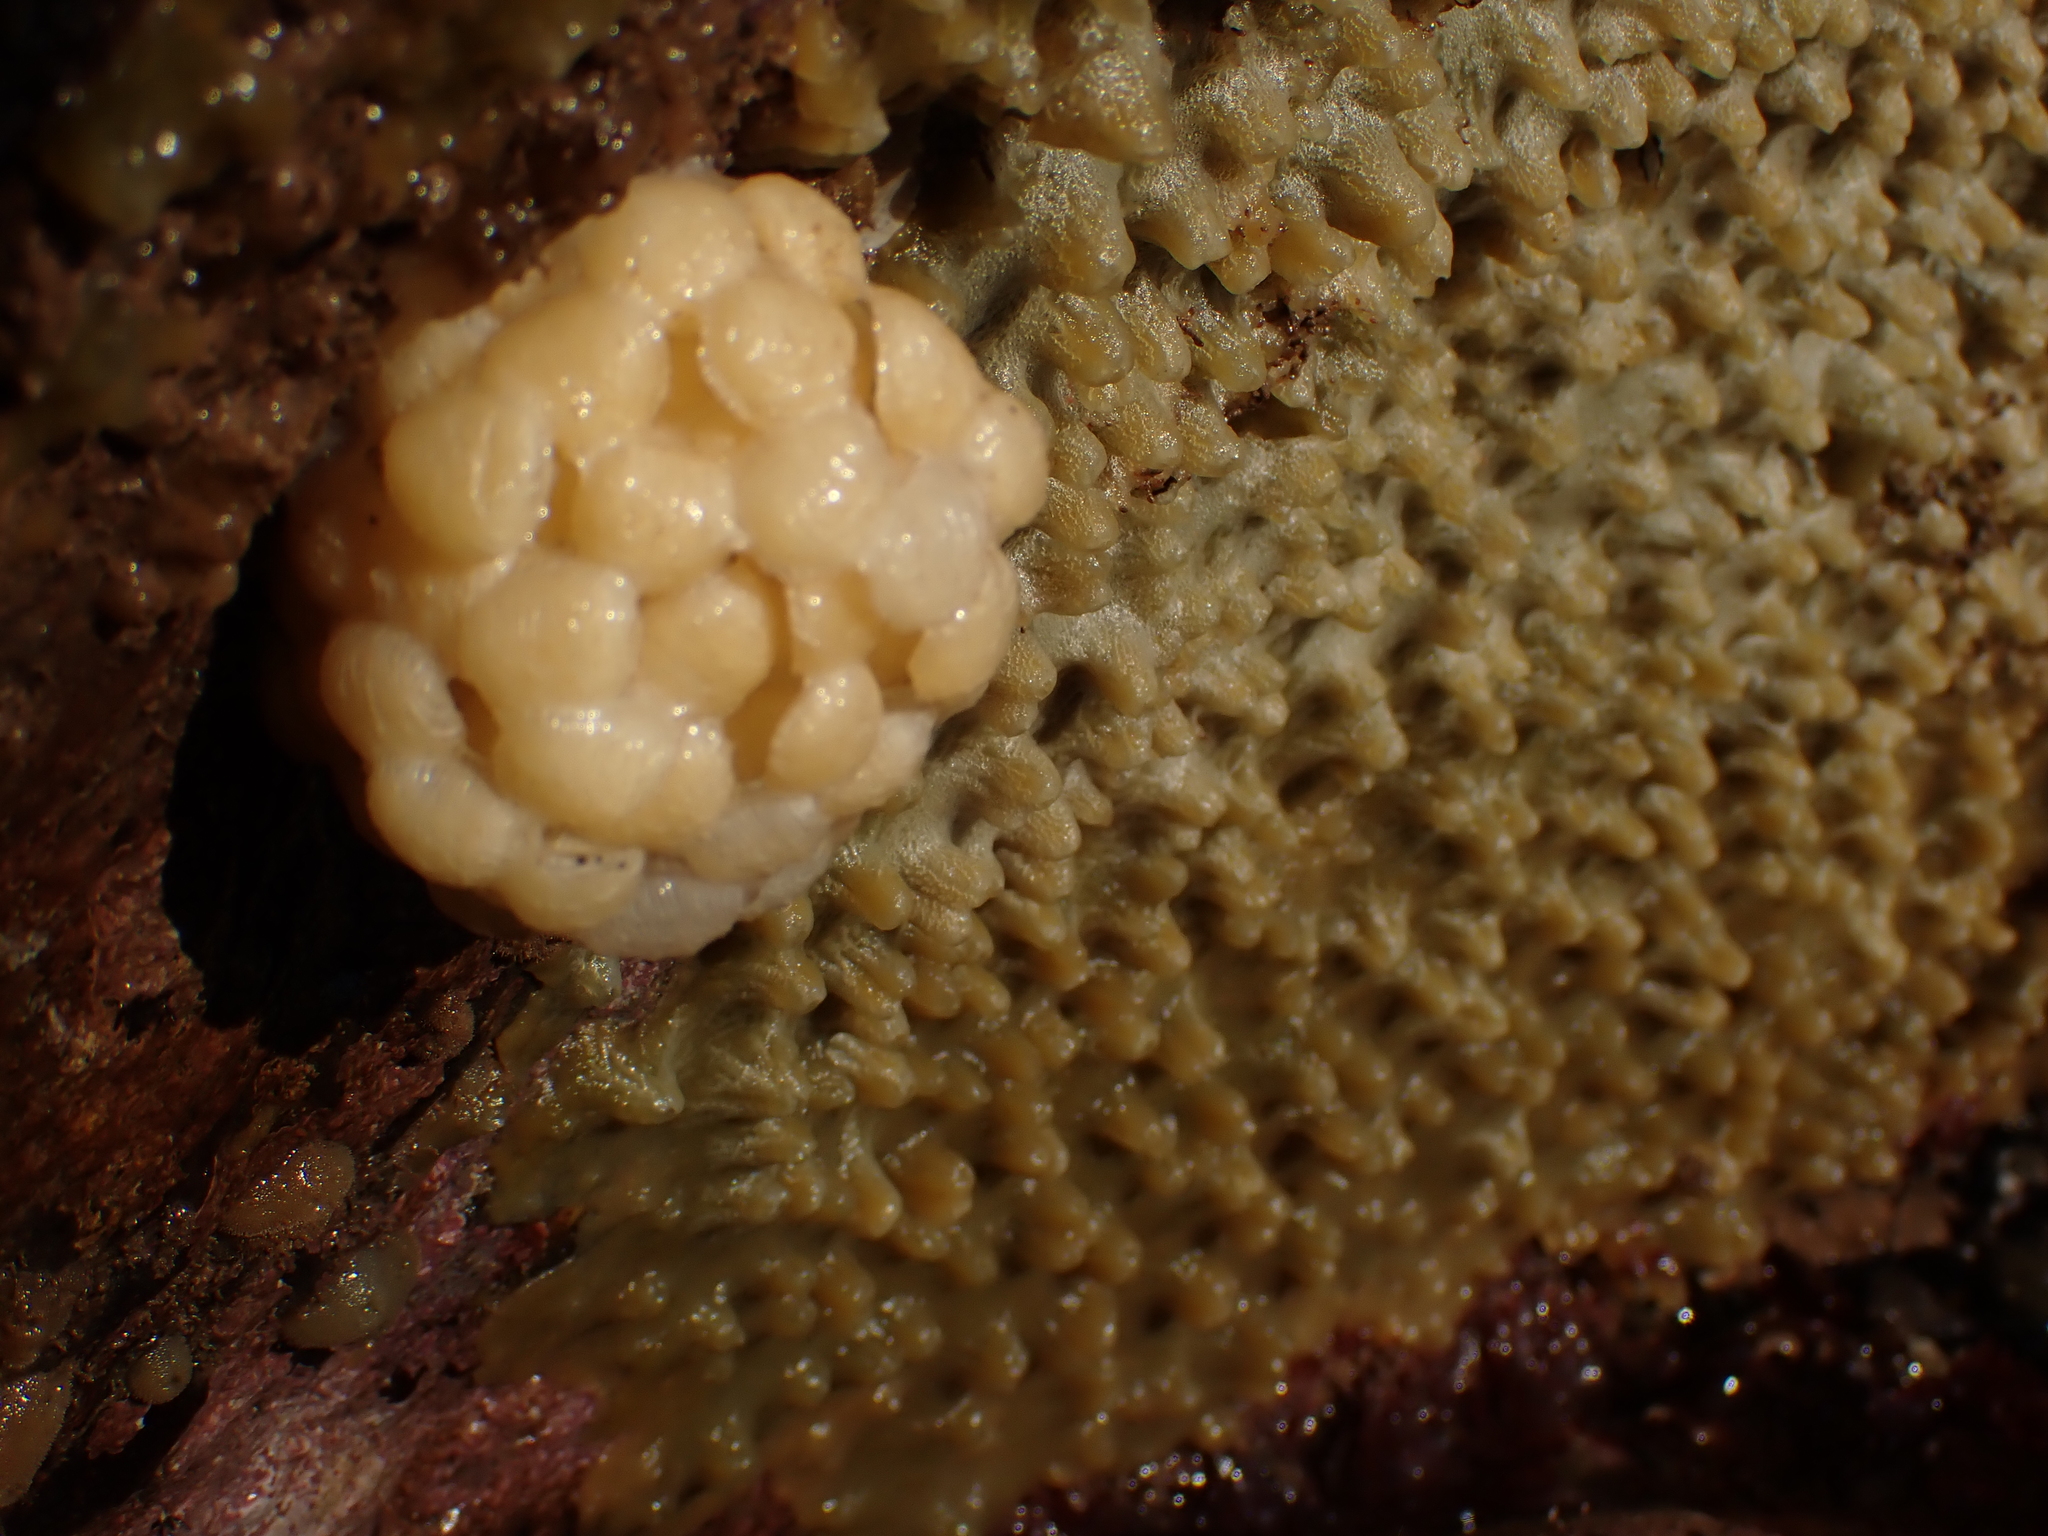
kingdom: Animalia
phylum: Mollusca
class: Gastropoda
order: Neogastropoda
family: Buccinidae
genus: Buccinum
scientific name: Buccinum undatum
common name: Common whelk
